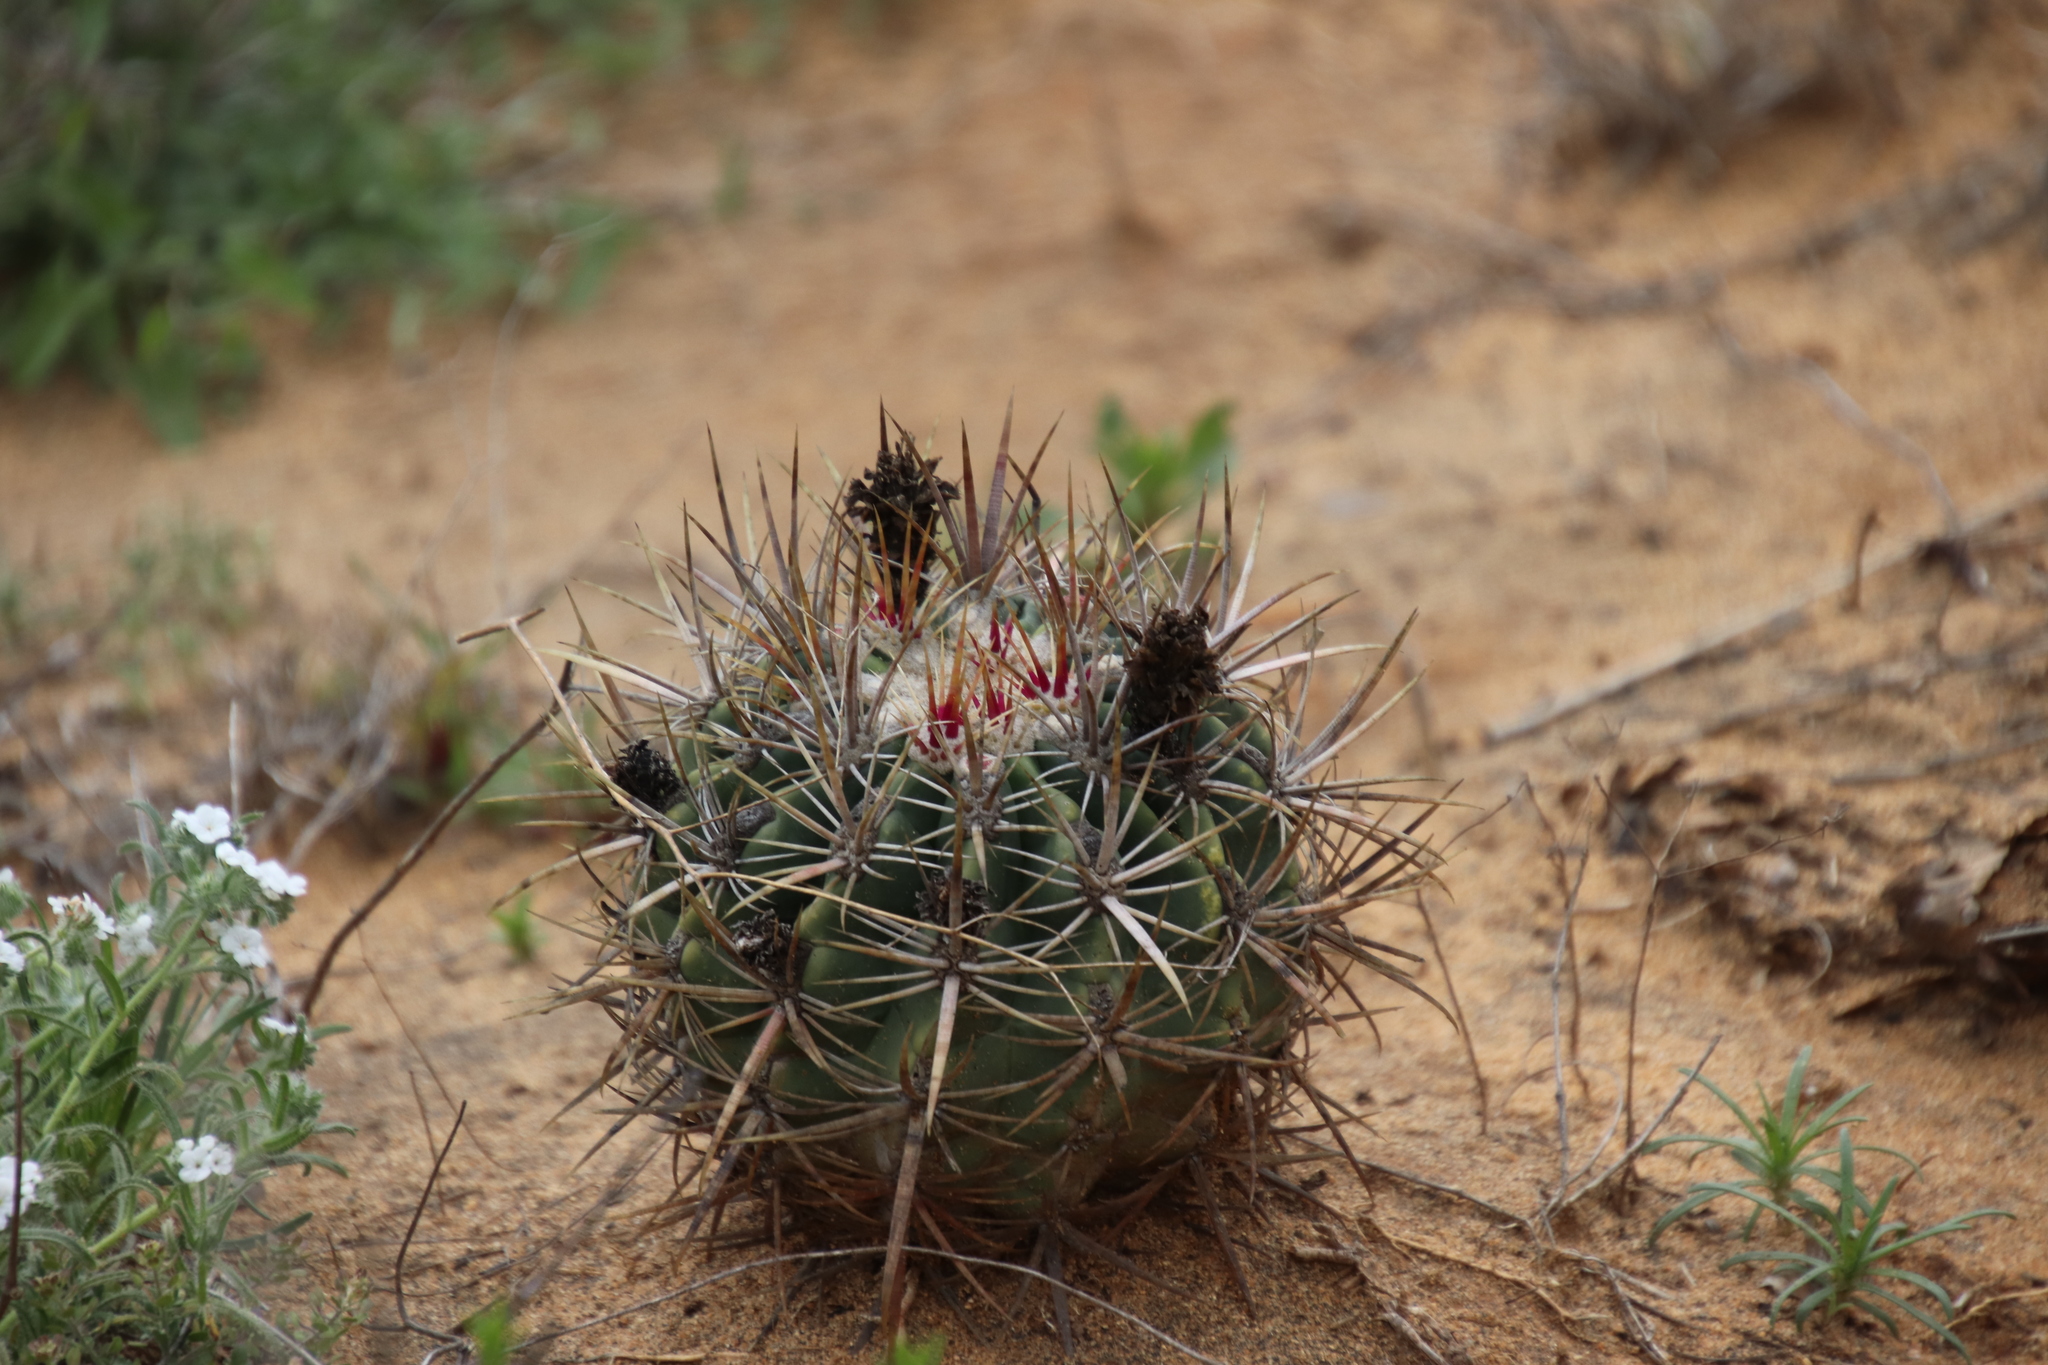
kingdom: Plantae
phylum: Tracheophyta
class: Magnoliopsida
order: Caryophyllales
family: Cactaceae
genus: Ferocactus
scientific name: Ferocactus viridescens
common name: San diego barrel cactus
